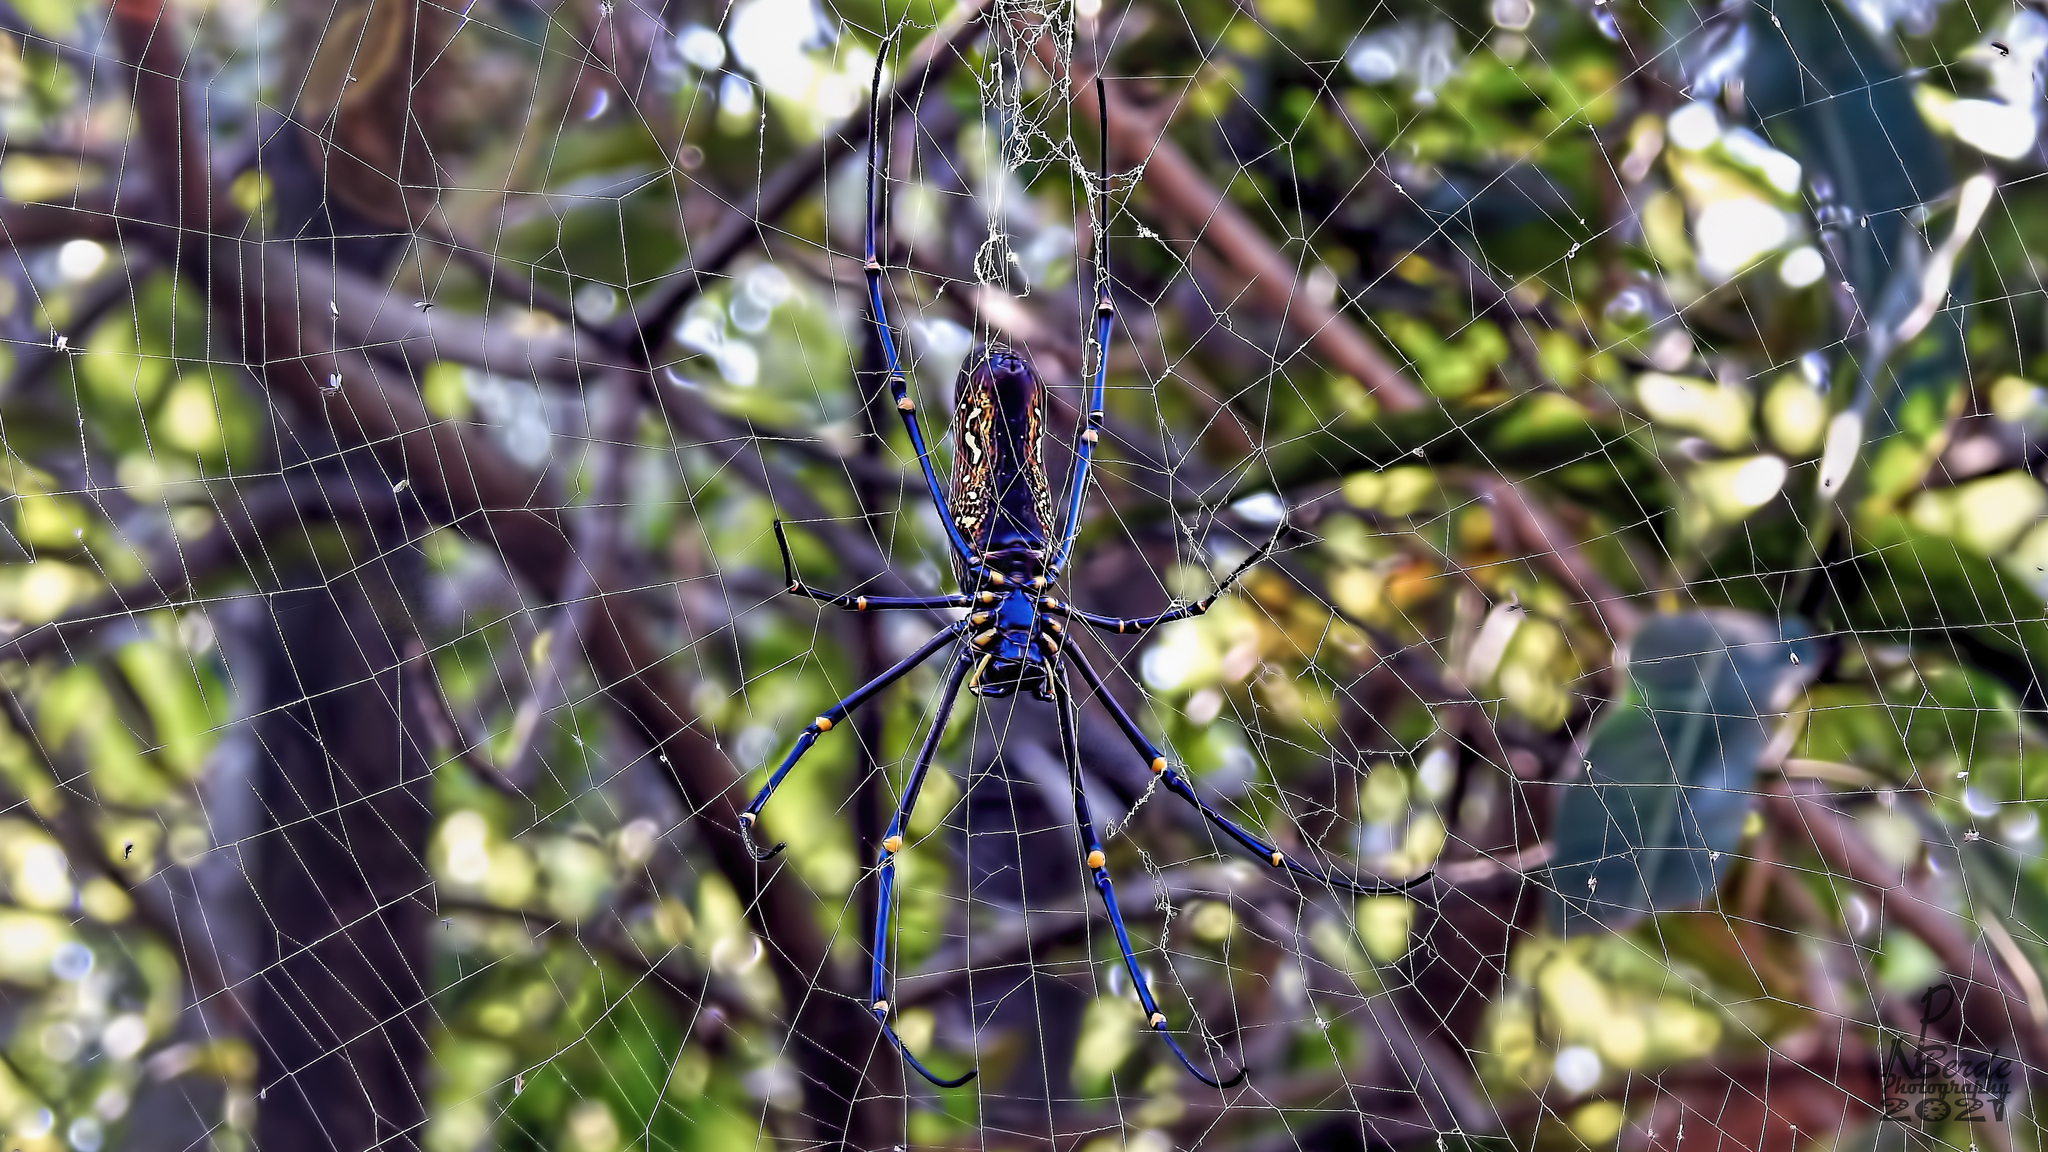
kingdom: Animalia
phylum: Arthropoda
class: Arachnida
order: Araneae
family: Araneidae
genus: Nephila
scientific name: Nephila pilipes
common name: Giant golden orb weaver
